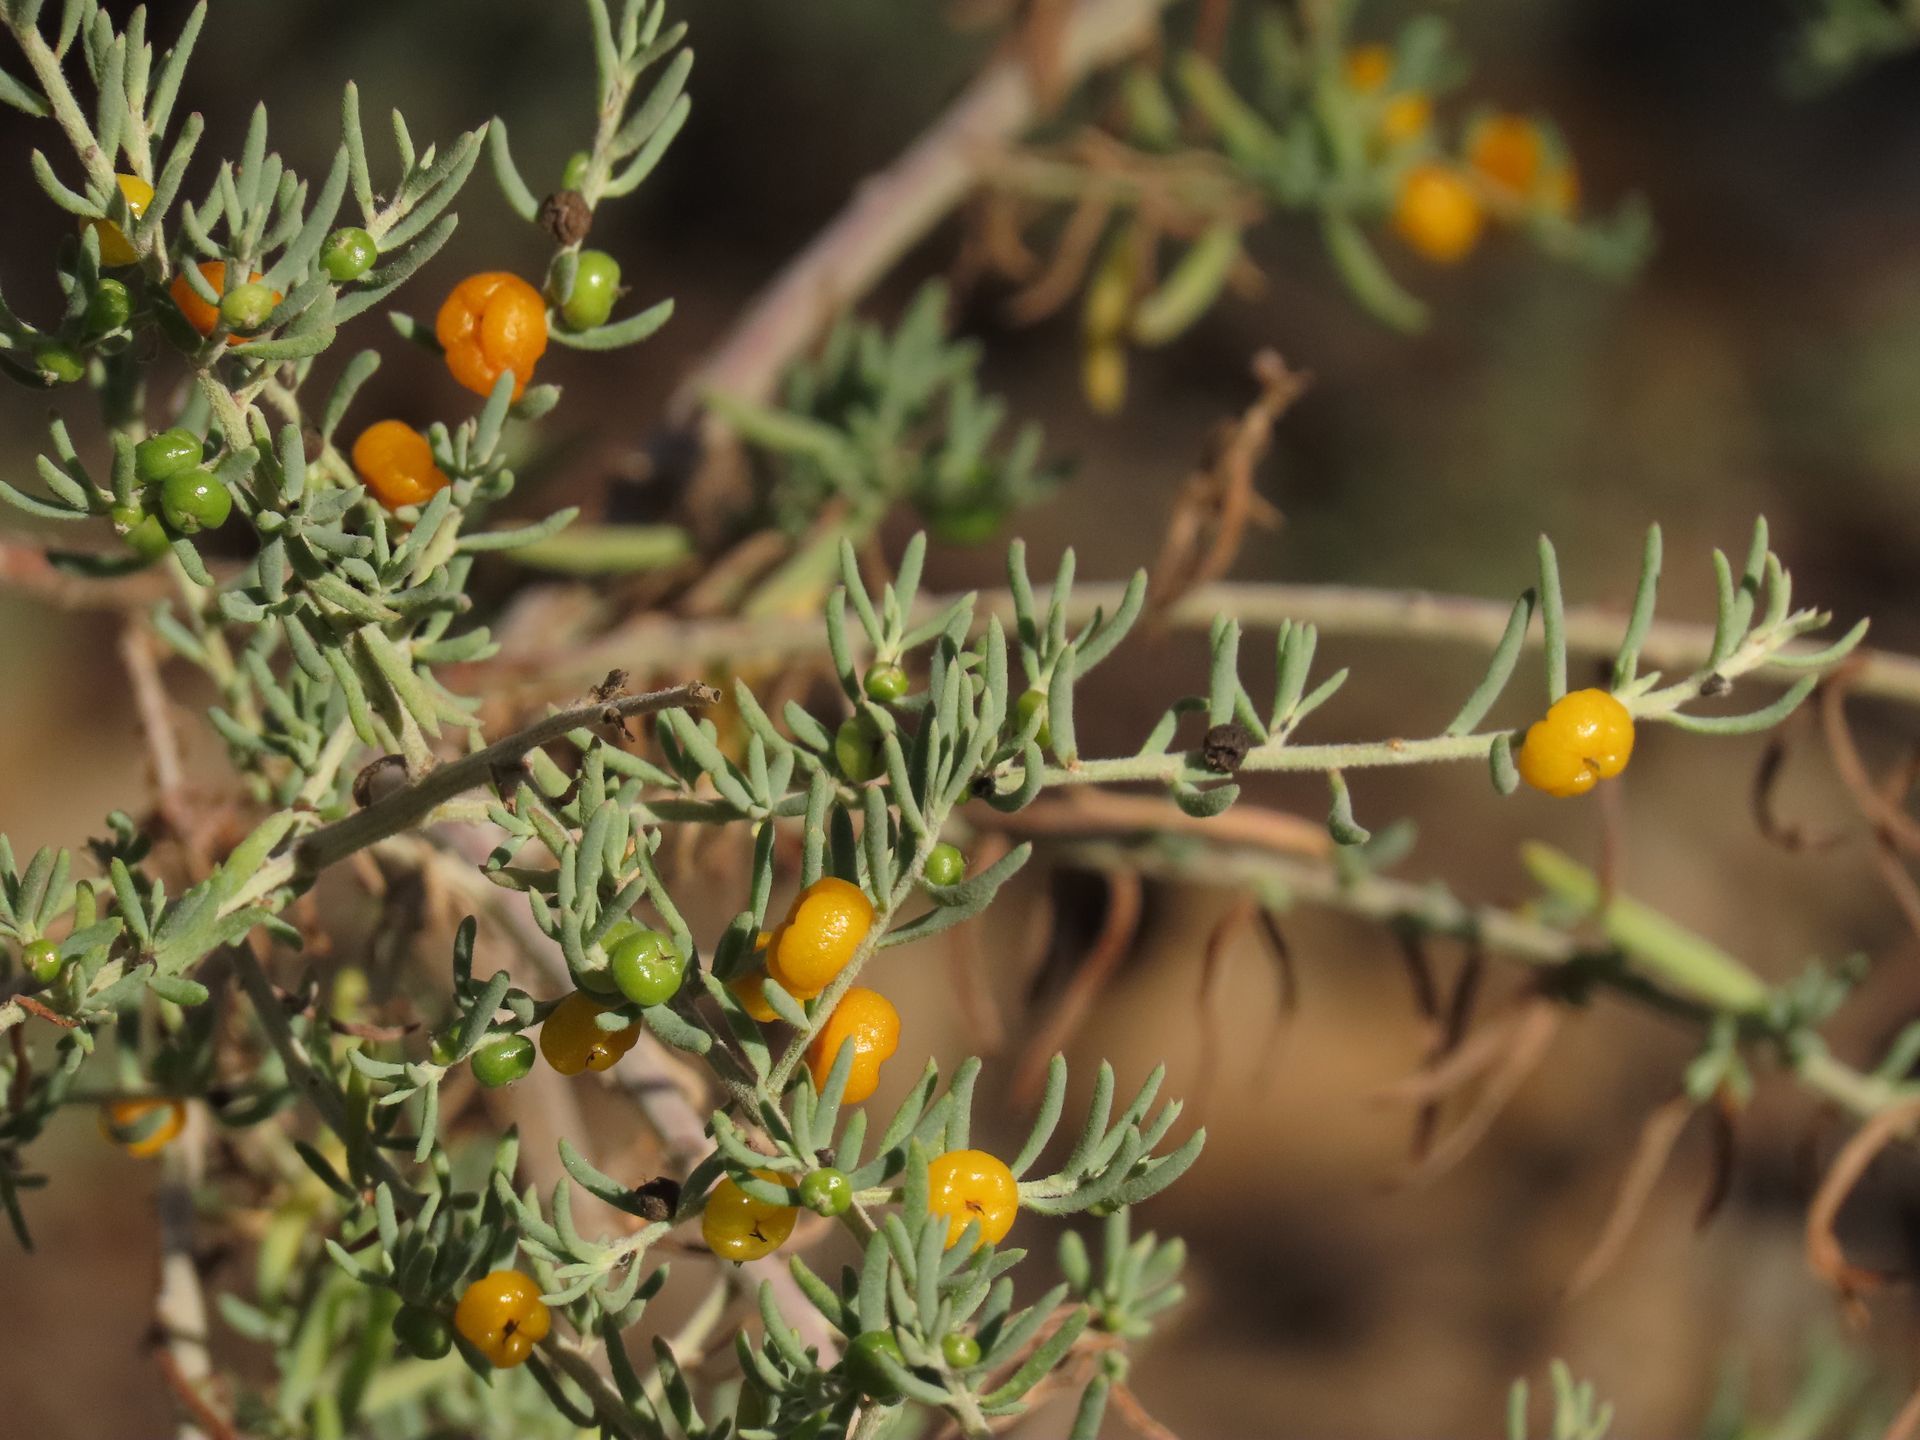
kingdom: Plantae
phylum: Tracheophyta
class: Magnoliopsida
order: Caryophyllales
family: Amaranthaceae
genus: Enchylaena
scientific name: Enchylaena tomentosa
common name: Ruby saltbush
